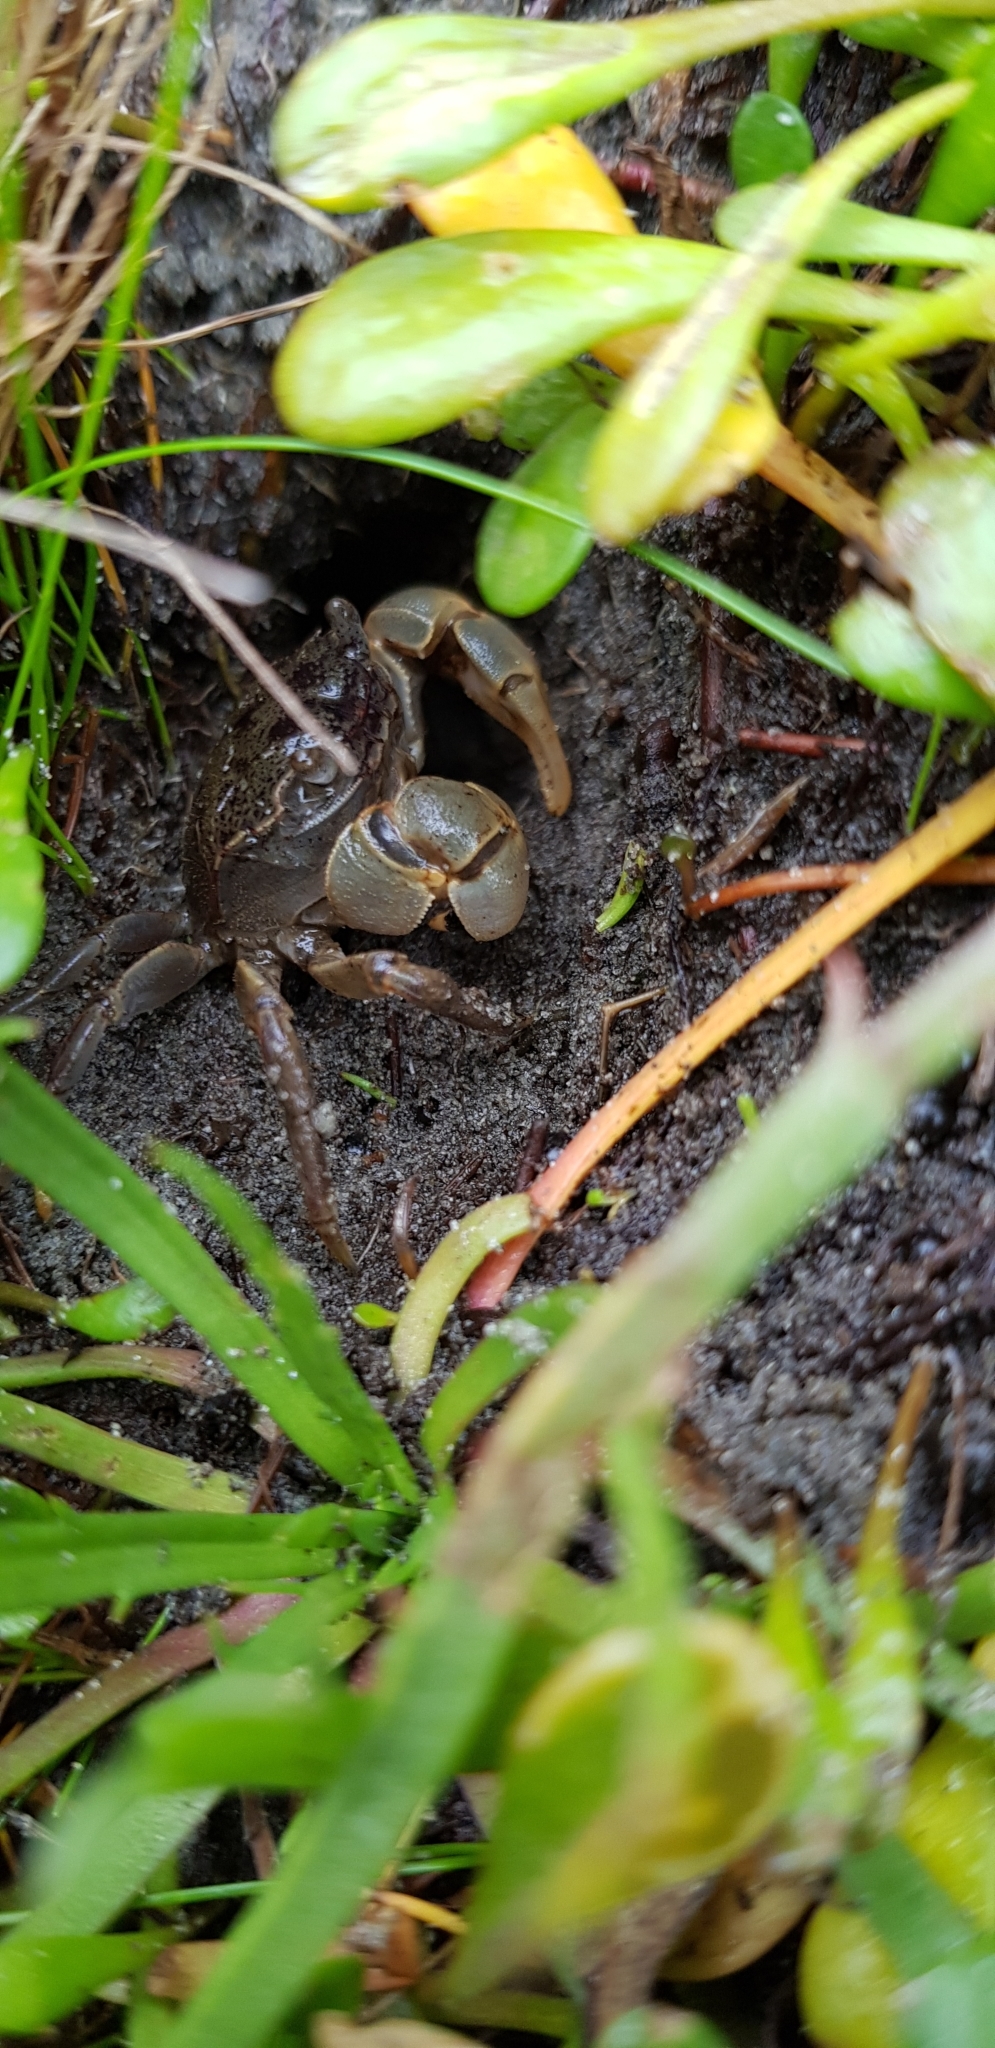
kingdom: Animalia
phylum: Arthropoda
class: Malacostraca
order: Decapoda
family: Varunidae
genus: Austrohelice
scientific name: Austrohelice crassa
